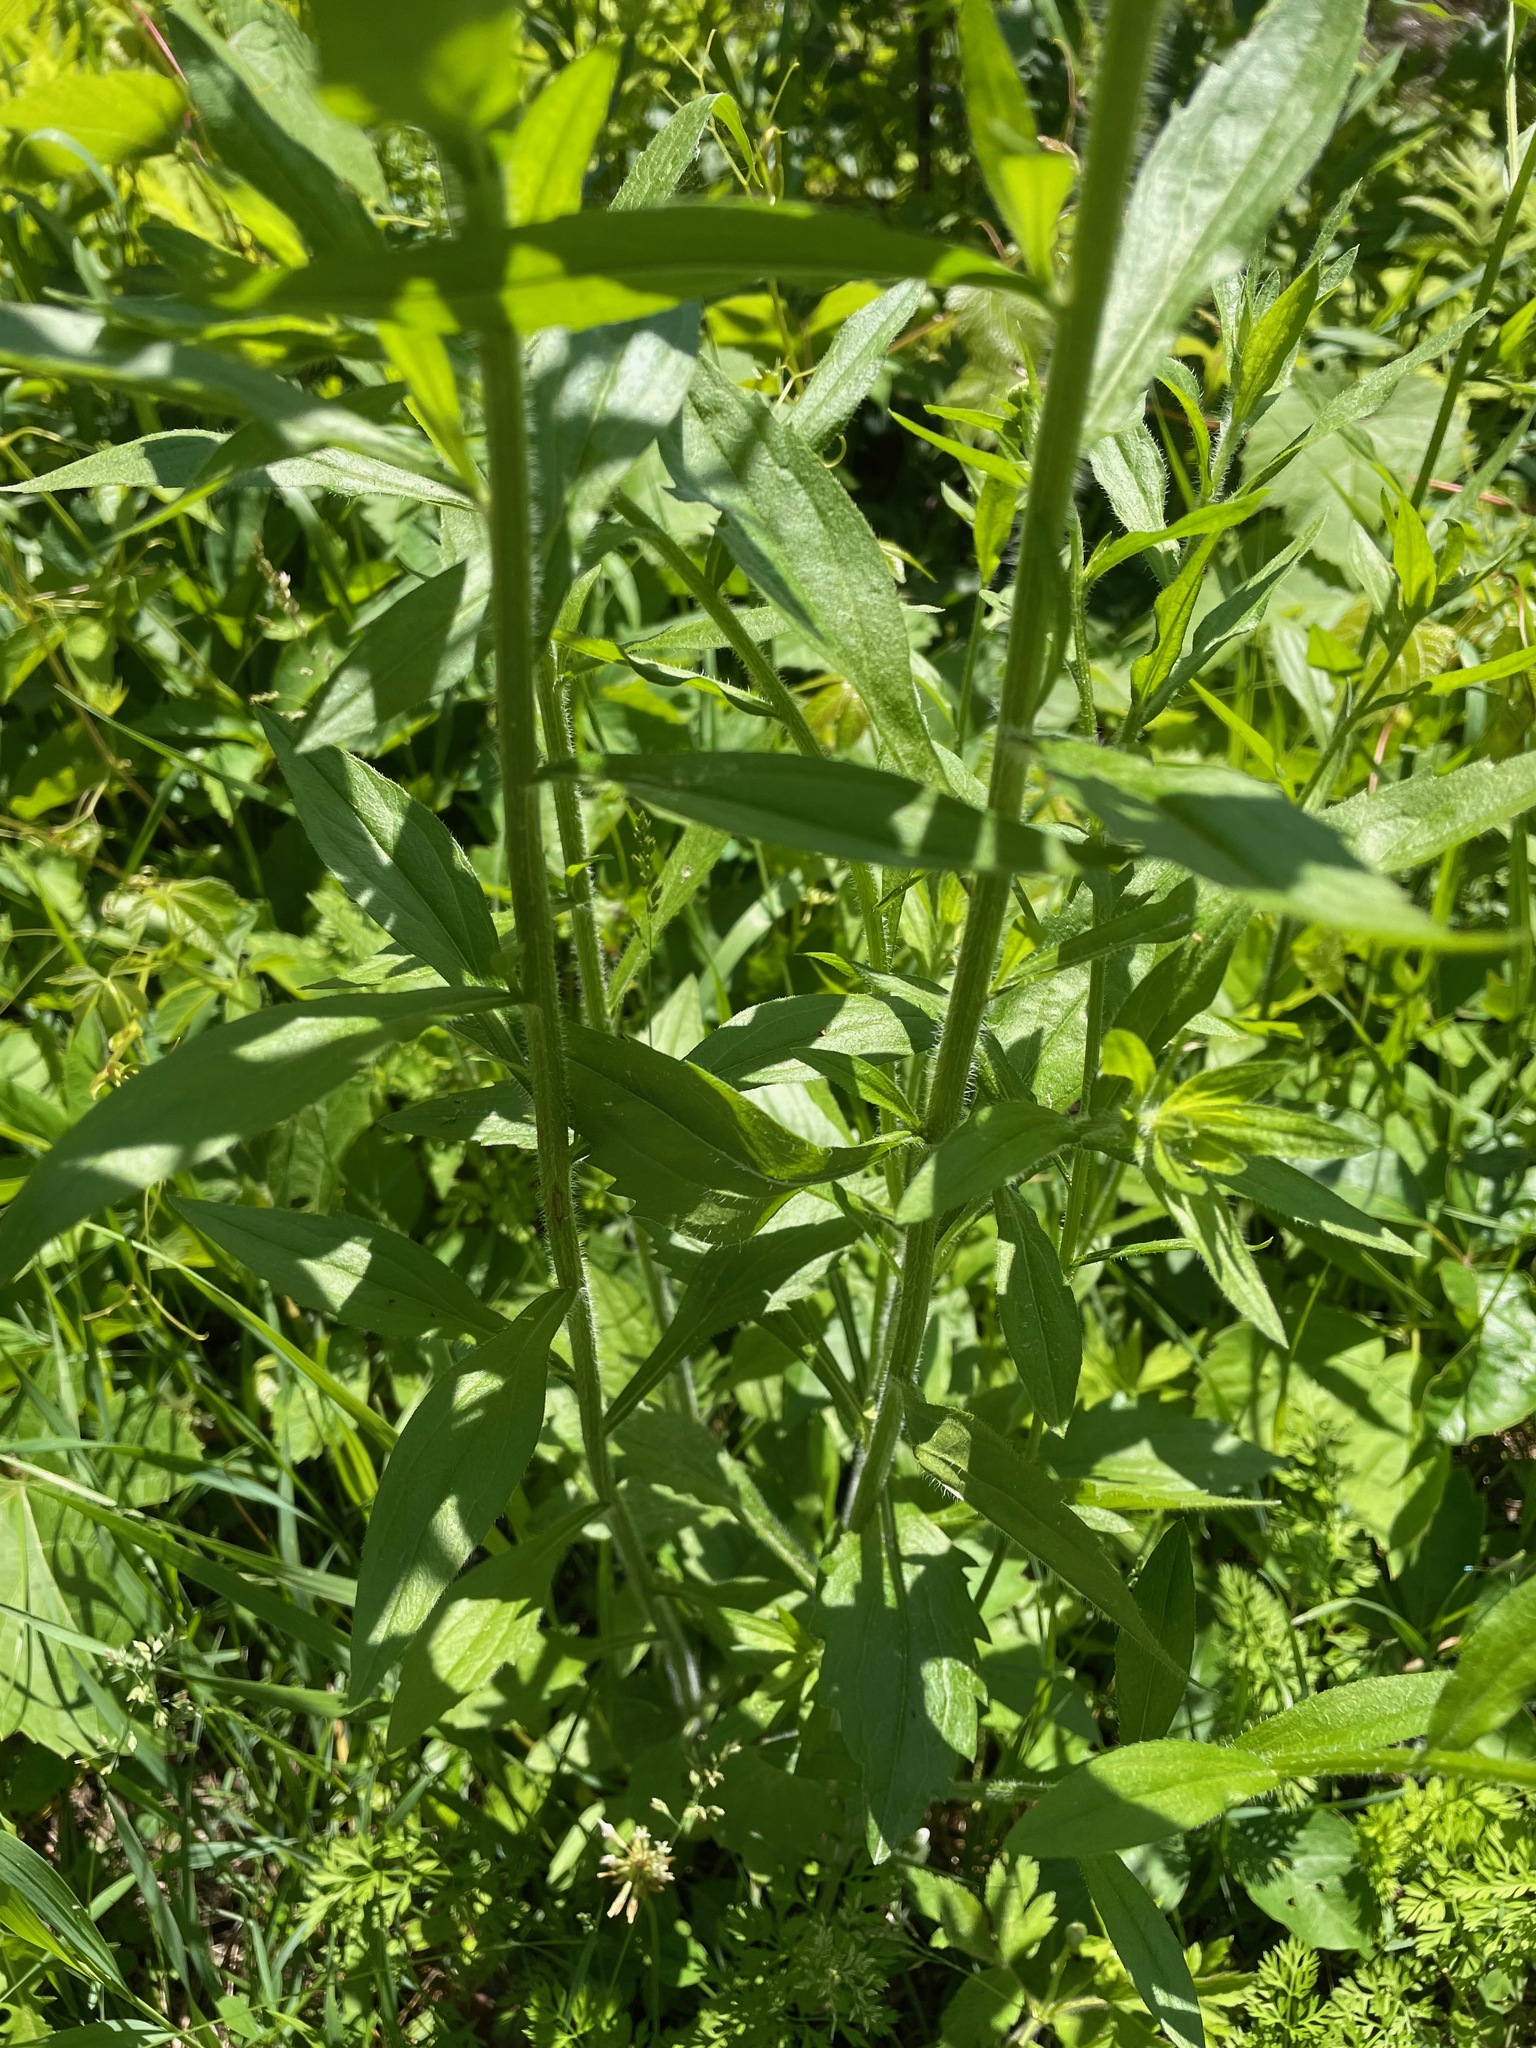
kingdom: Plantae
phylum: Tracheophyta
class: Magnoliopsida
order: Asterales
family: Asteraceae
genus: Erigeron
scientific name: Erigeron annuus
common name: Tall fleabane
